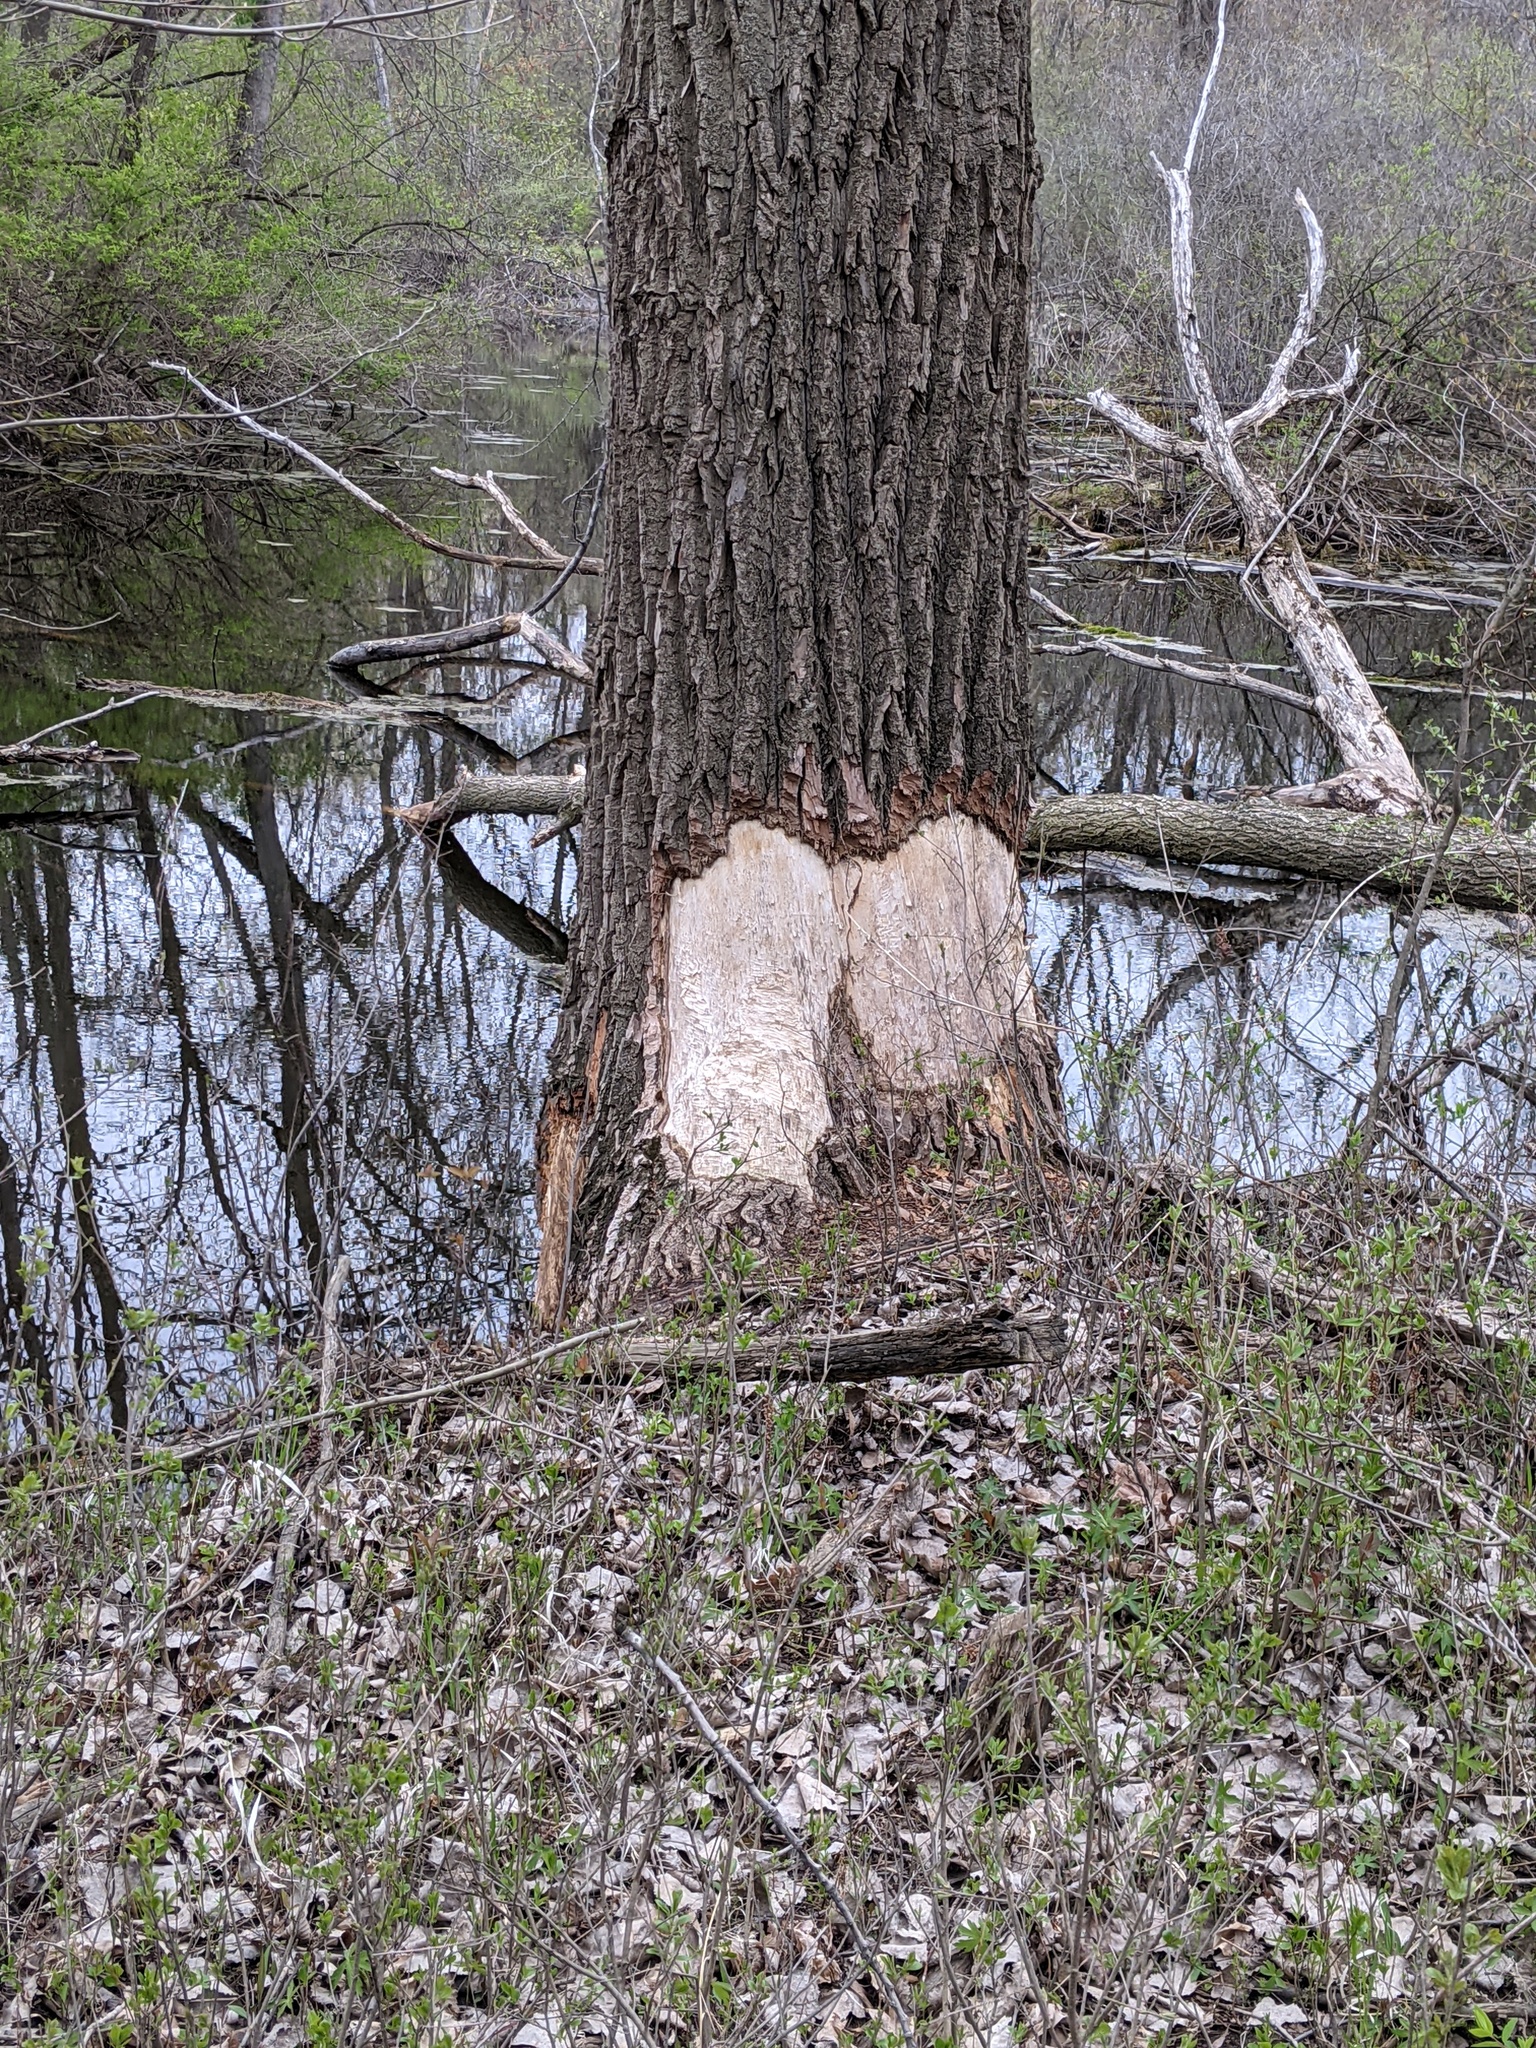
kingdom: Animalia
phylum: Chordata
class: Mammalia
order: Rodentia
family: Castoridae
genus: Castor
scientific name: Castor canadensis
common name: American beaver
